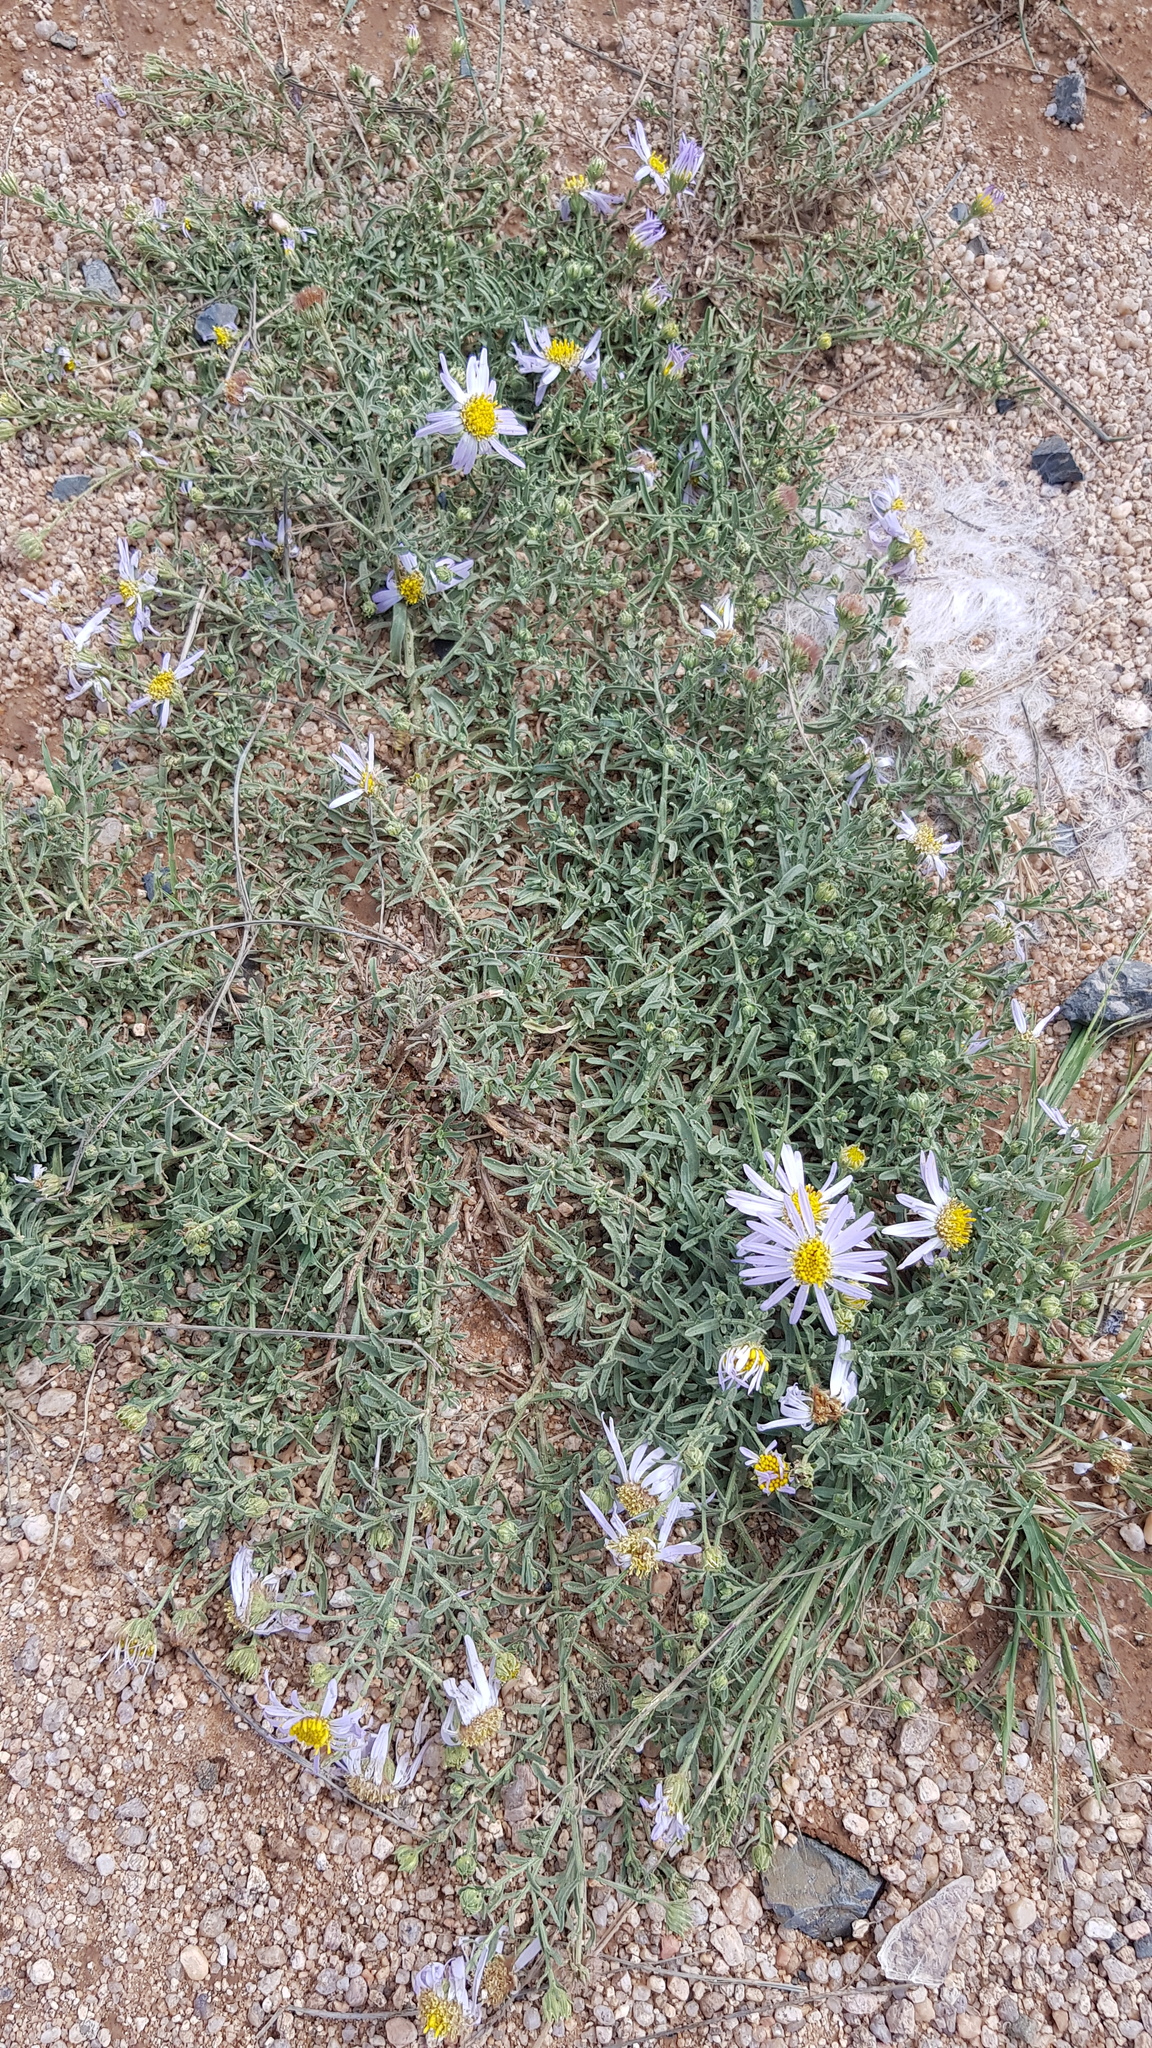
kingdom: Plantae
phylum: Tracheophyta
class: Magnoliopsida
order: Asterales
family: Asteraceae
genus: Heteropappus
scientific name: Heteropappus altaicus
